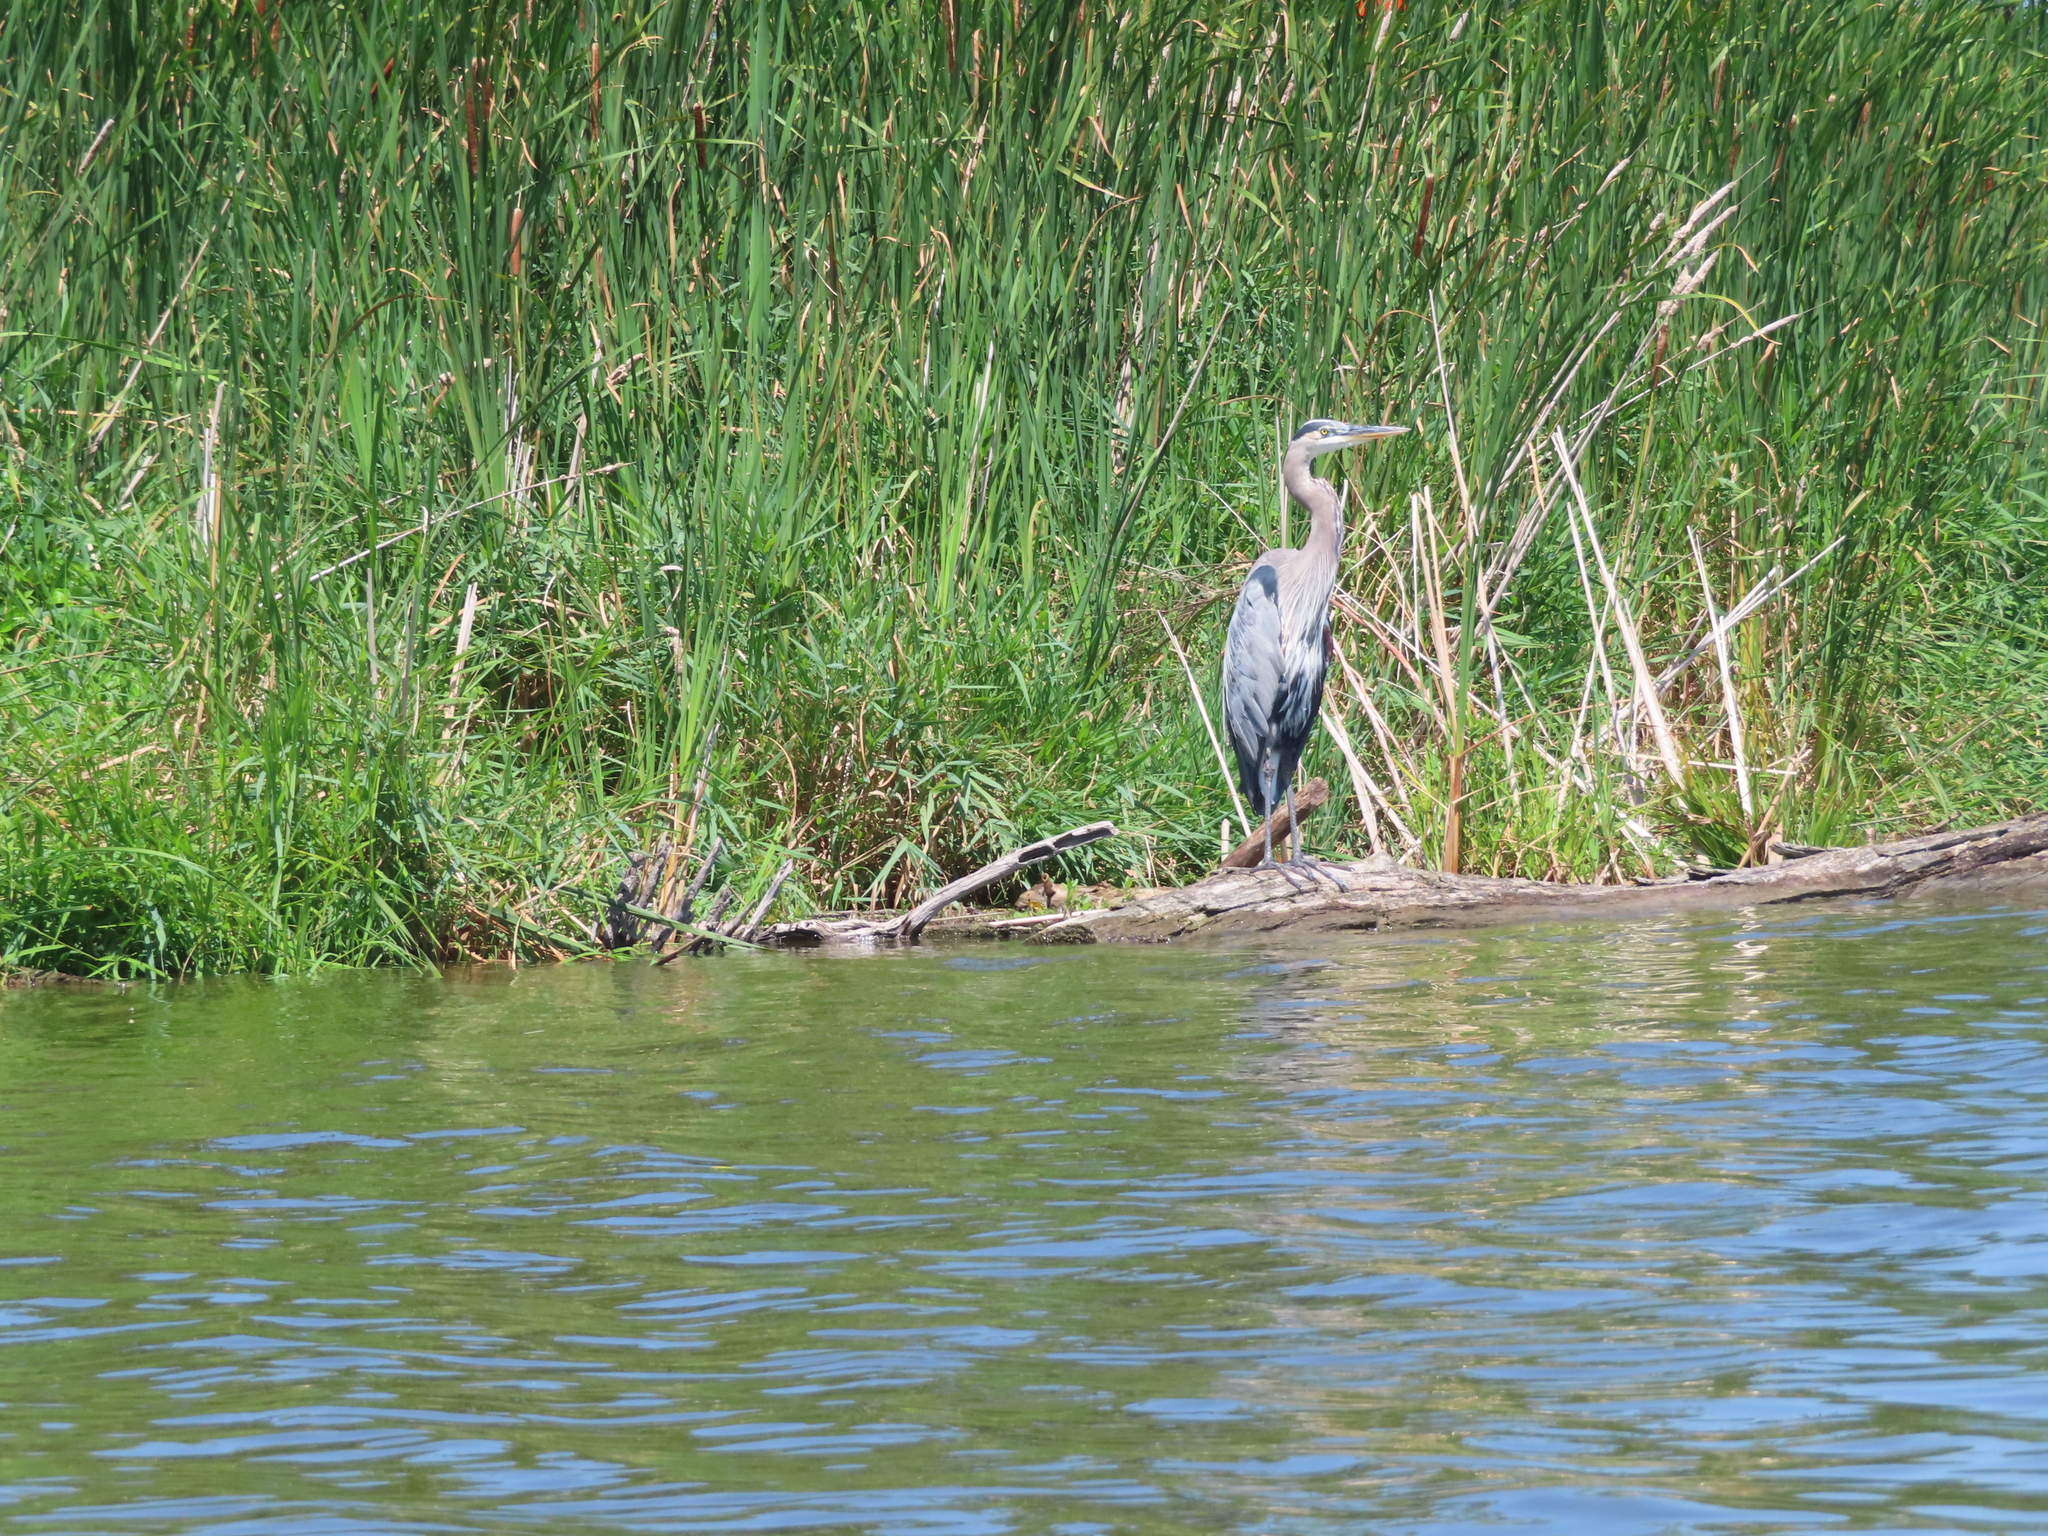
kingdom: Animalia
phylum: Chordata
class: Aves
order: Pelecaniformes
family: Ardeidae
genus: Ardea
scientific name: Ardea herodias
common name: Great blue heron
